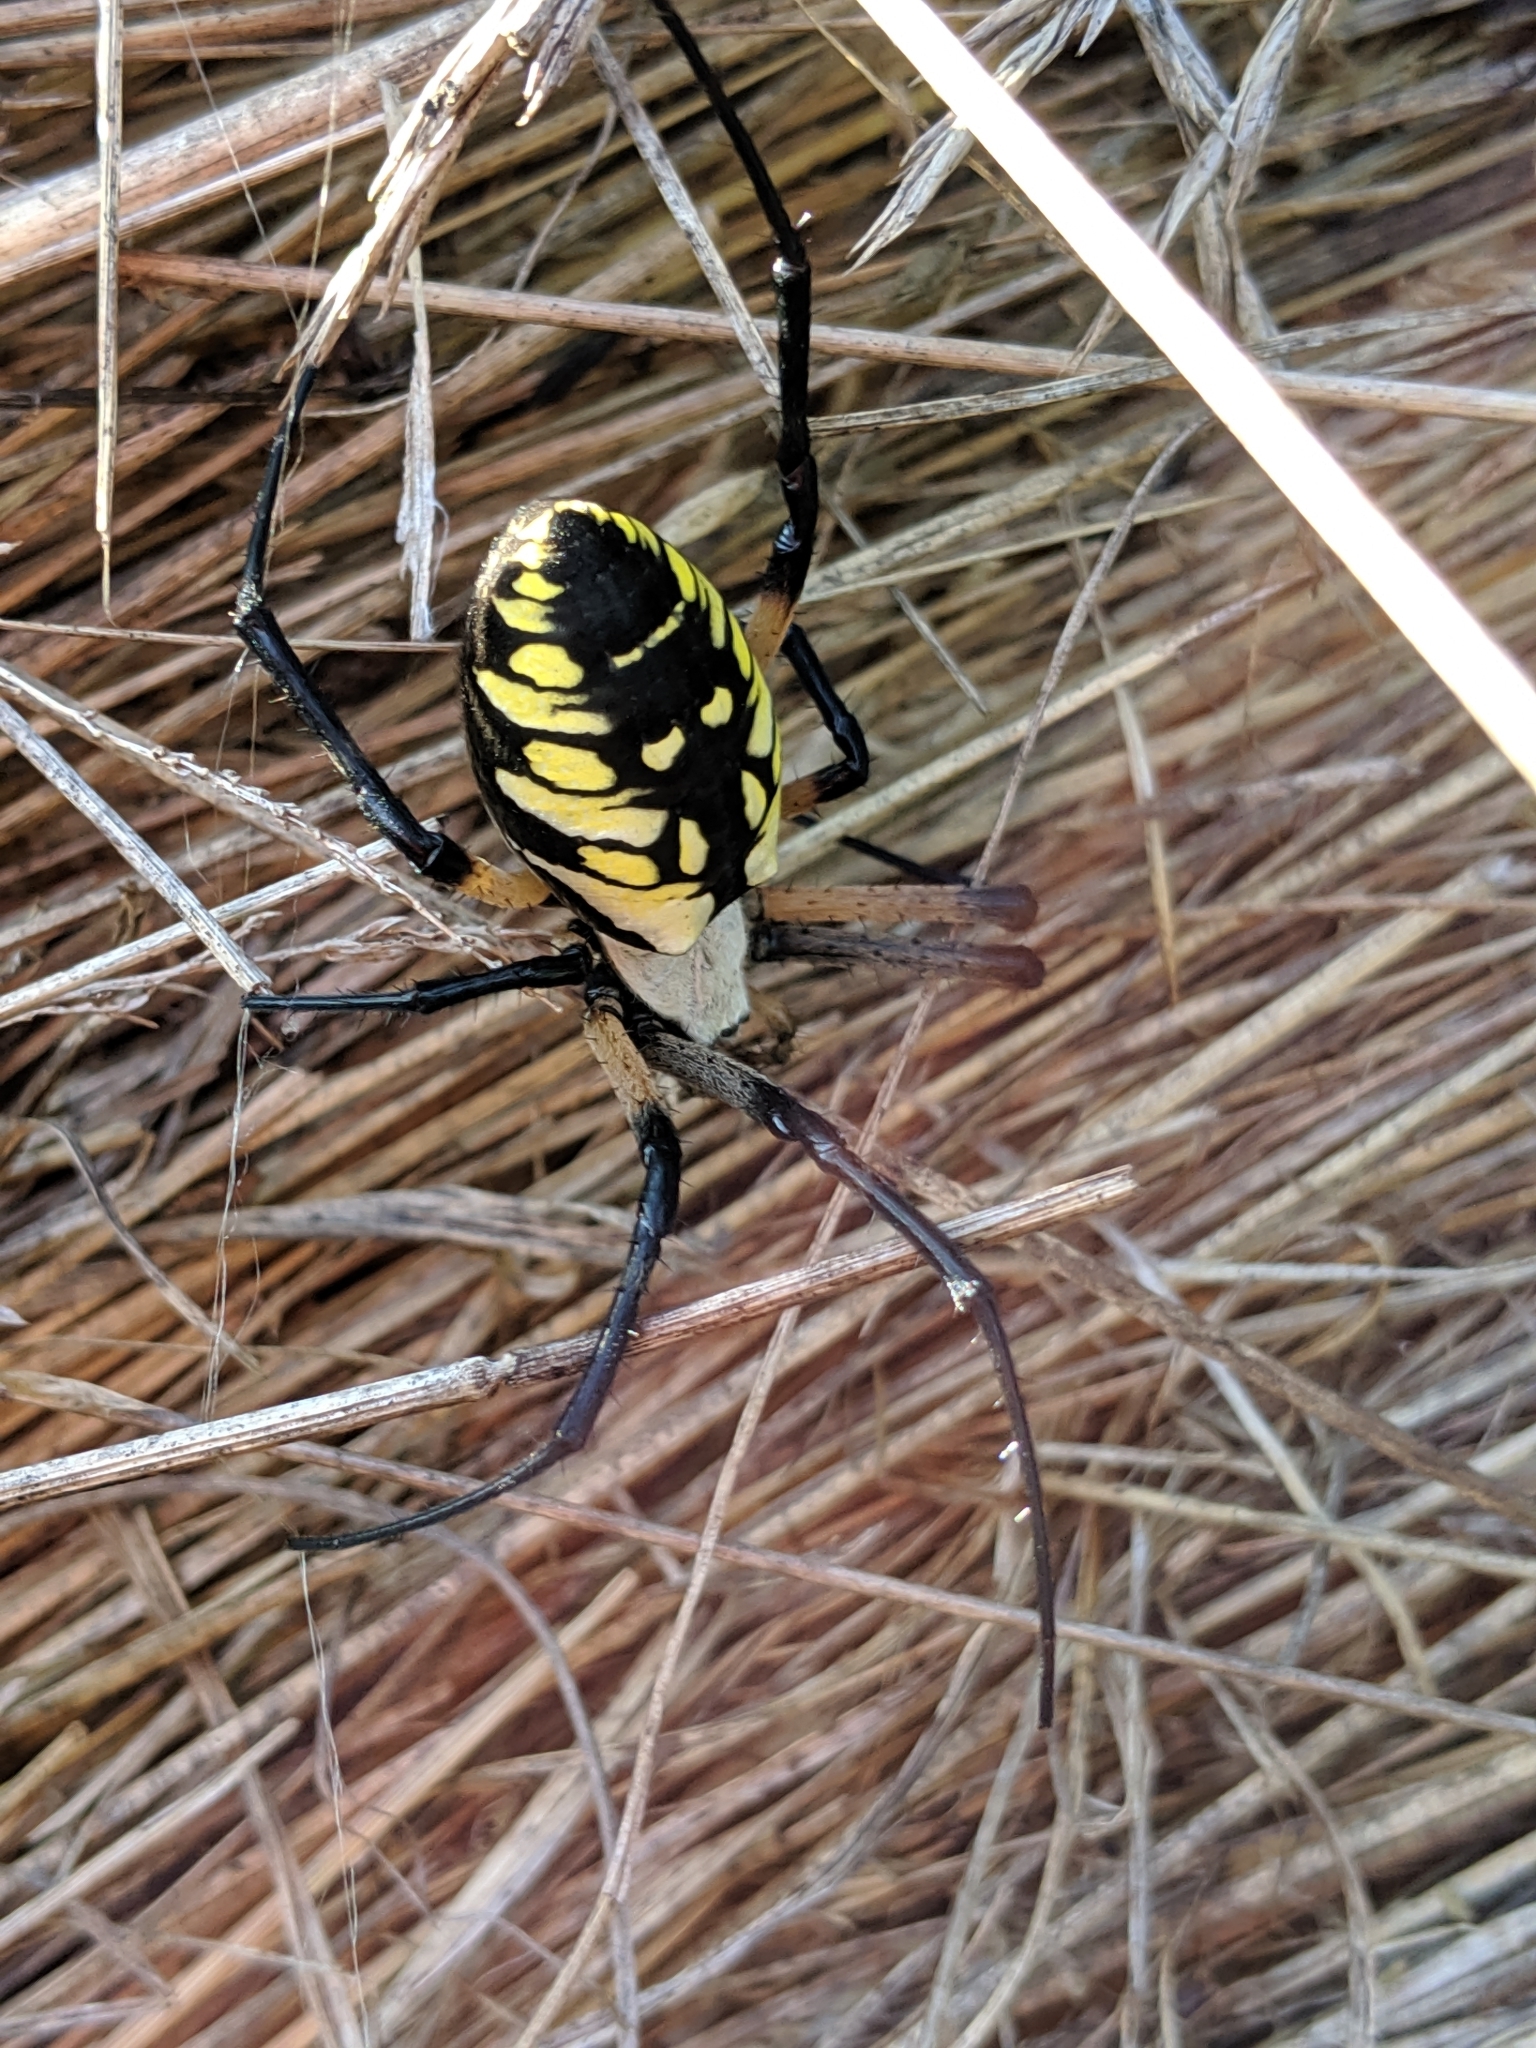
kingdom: Animalia
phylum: Arthropoda
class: Arachnida
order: Araneae
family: Araneidae
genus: Argiope
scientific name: Argiope aurantia
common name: Orb weavers
